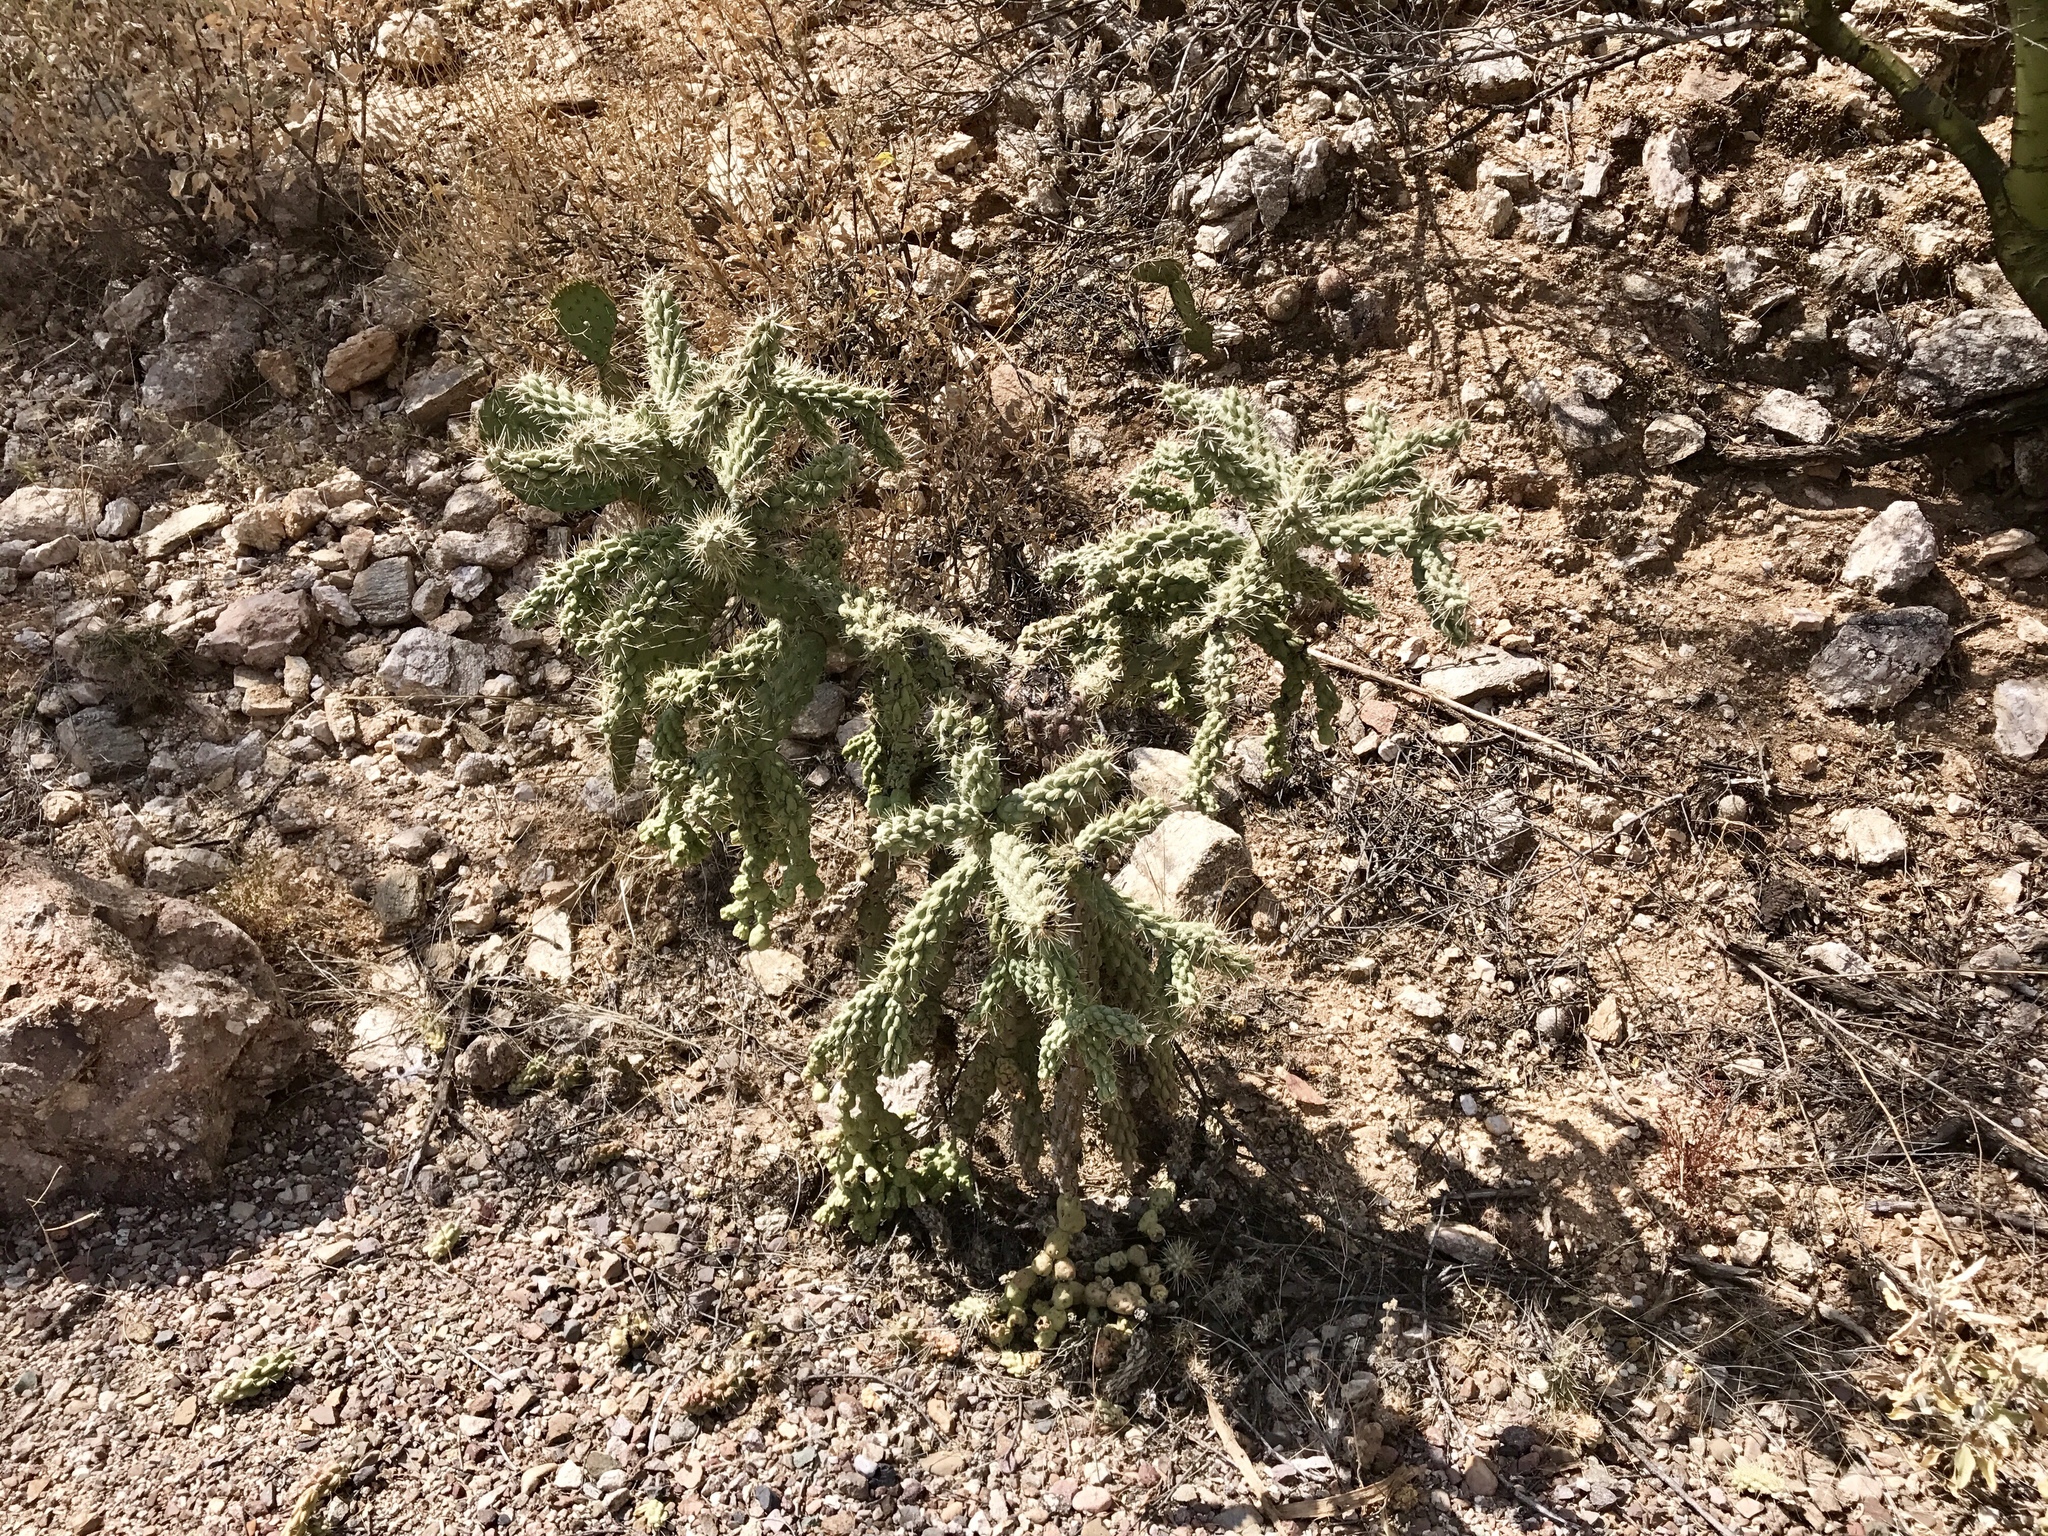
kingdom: Plantae
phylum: Tracheophyta
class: Magnoliopsida
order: Caryophyllales
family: Cactaceae
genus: Cylindropuntia
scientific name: Cylindropuntia fulgida
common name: Jumping cholla
